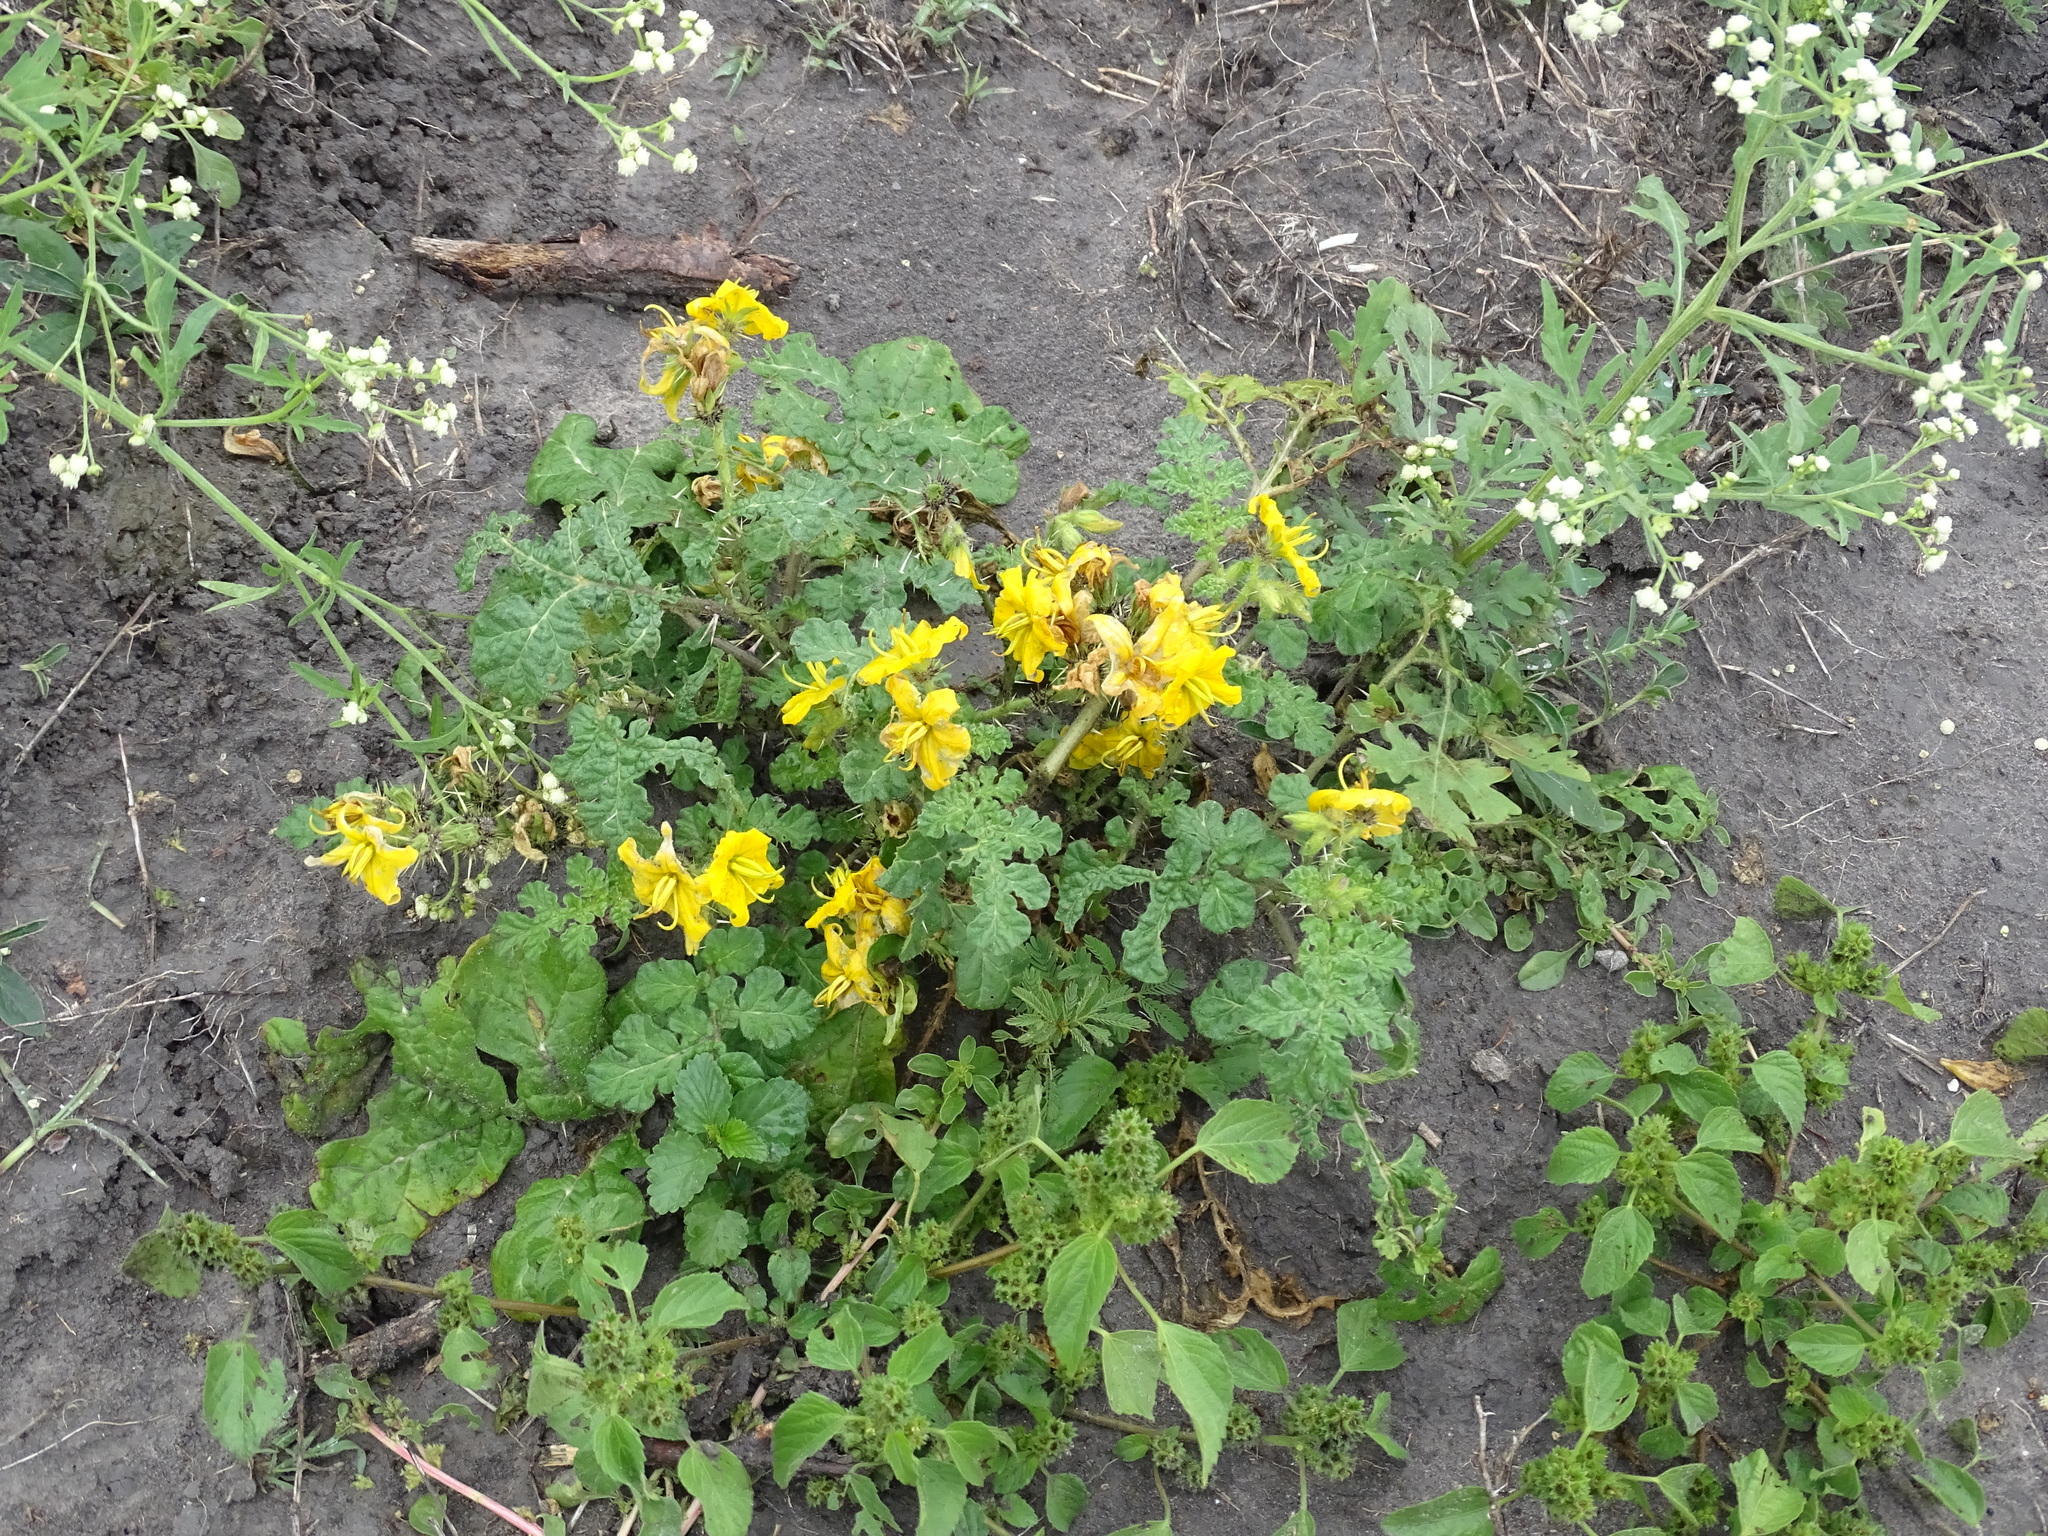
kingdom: Plantae
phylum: Tracheophyta
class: Magnoliopsida
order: Solanales
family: Solanaceae
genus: Solanum
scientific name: Solanum angustifolium
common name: Buffalobur nightshade
